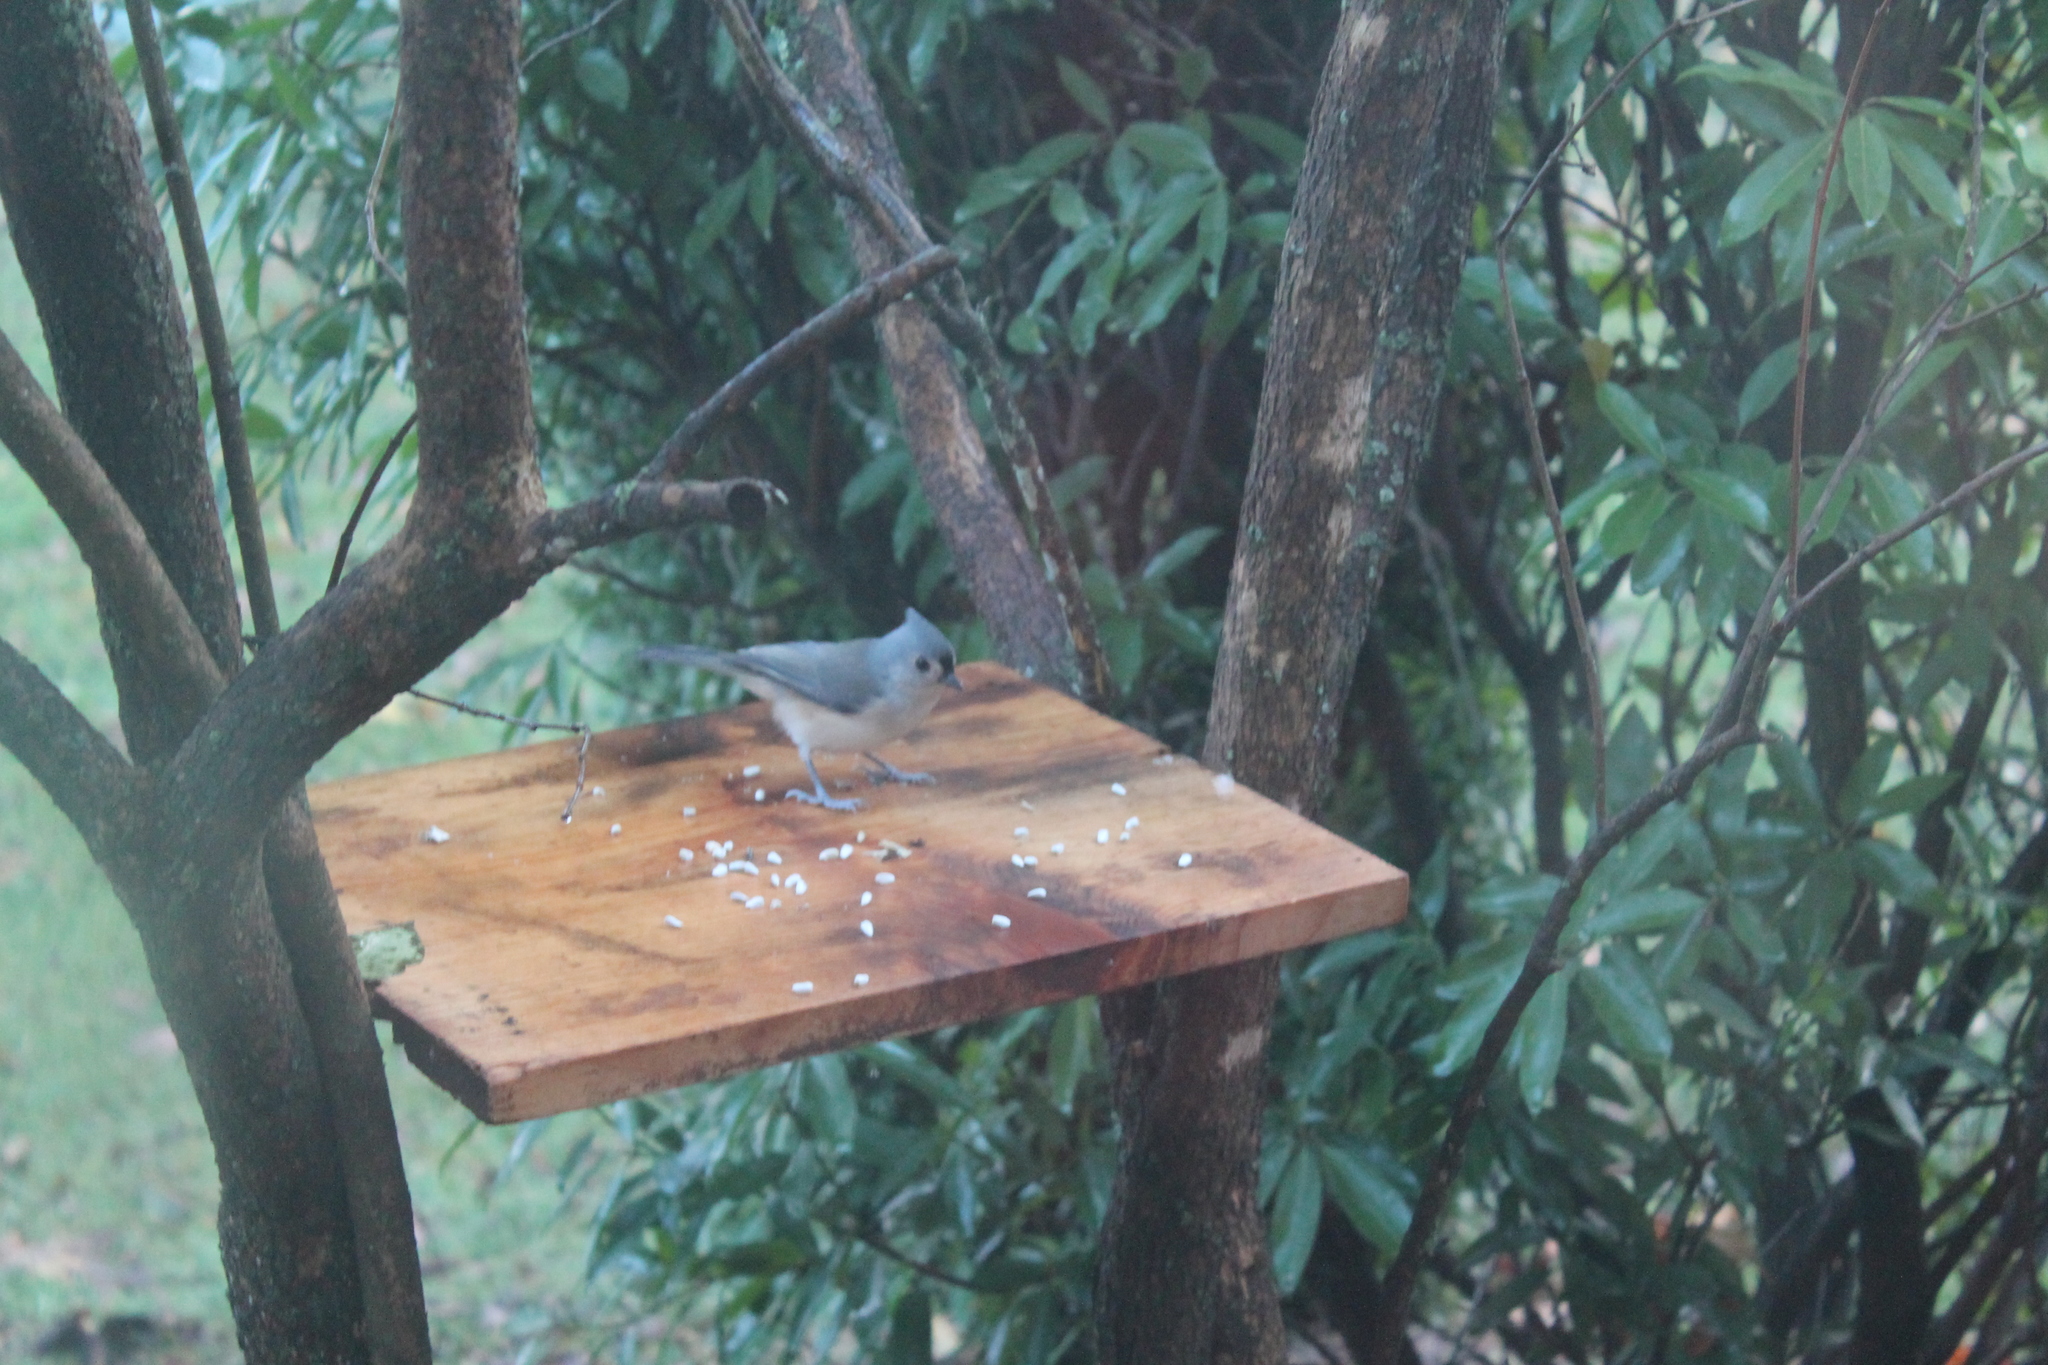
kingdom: Animalia
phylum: Chordata
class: Aves
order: Passeriformes
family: Paridae
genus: Baeolophus
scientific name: Baeolophus bicolor
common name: Tufted titmouse
